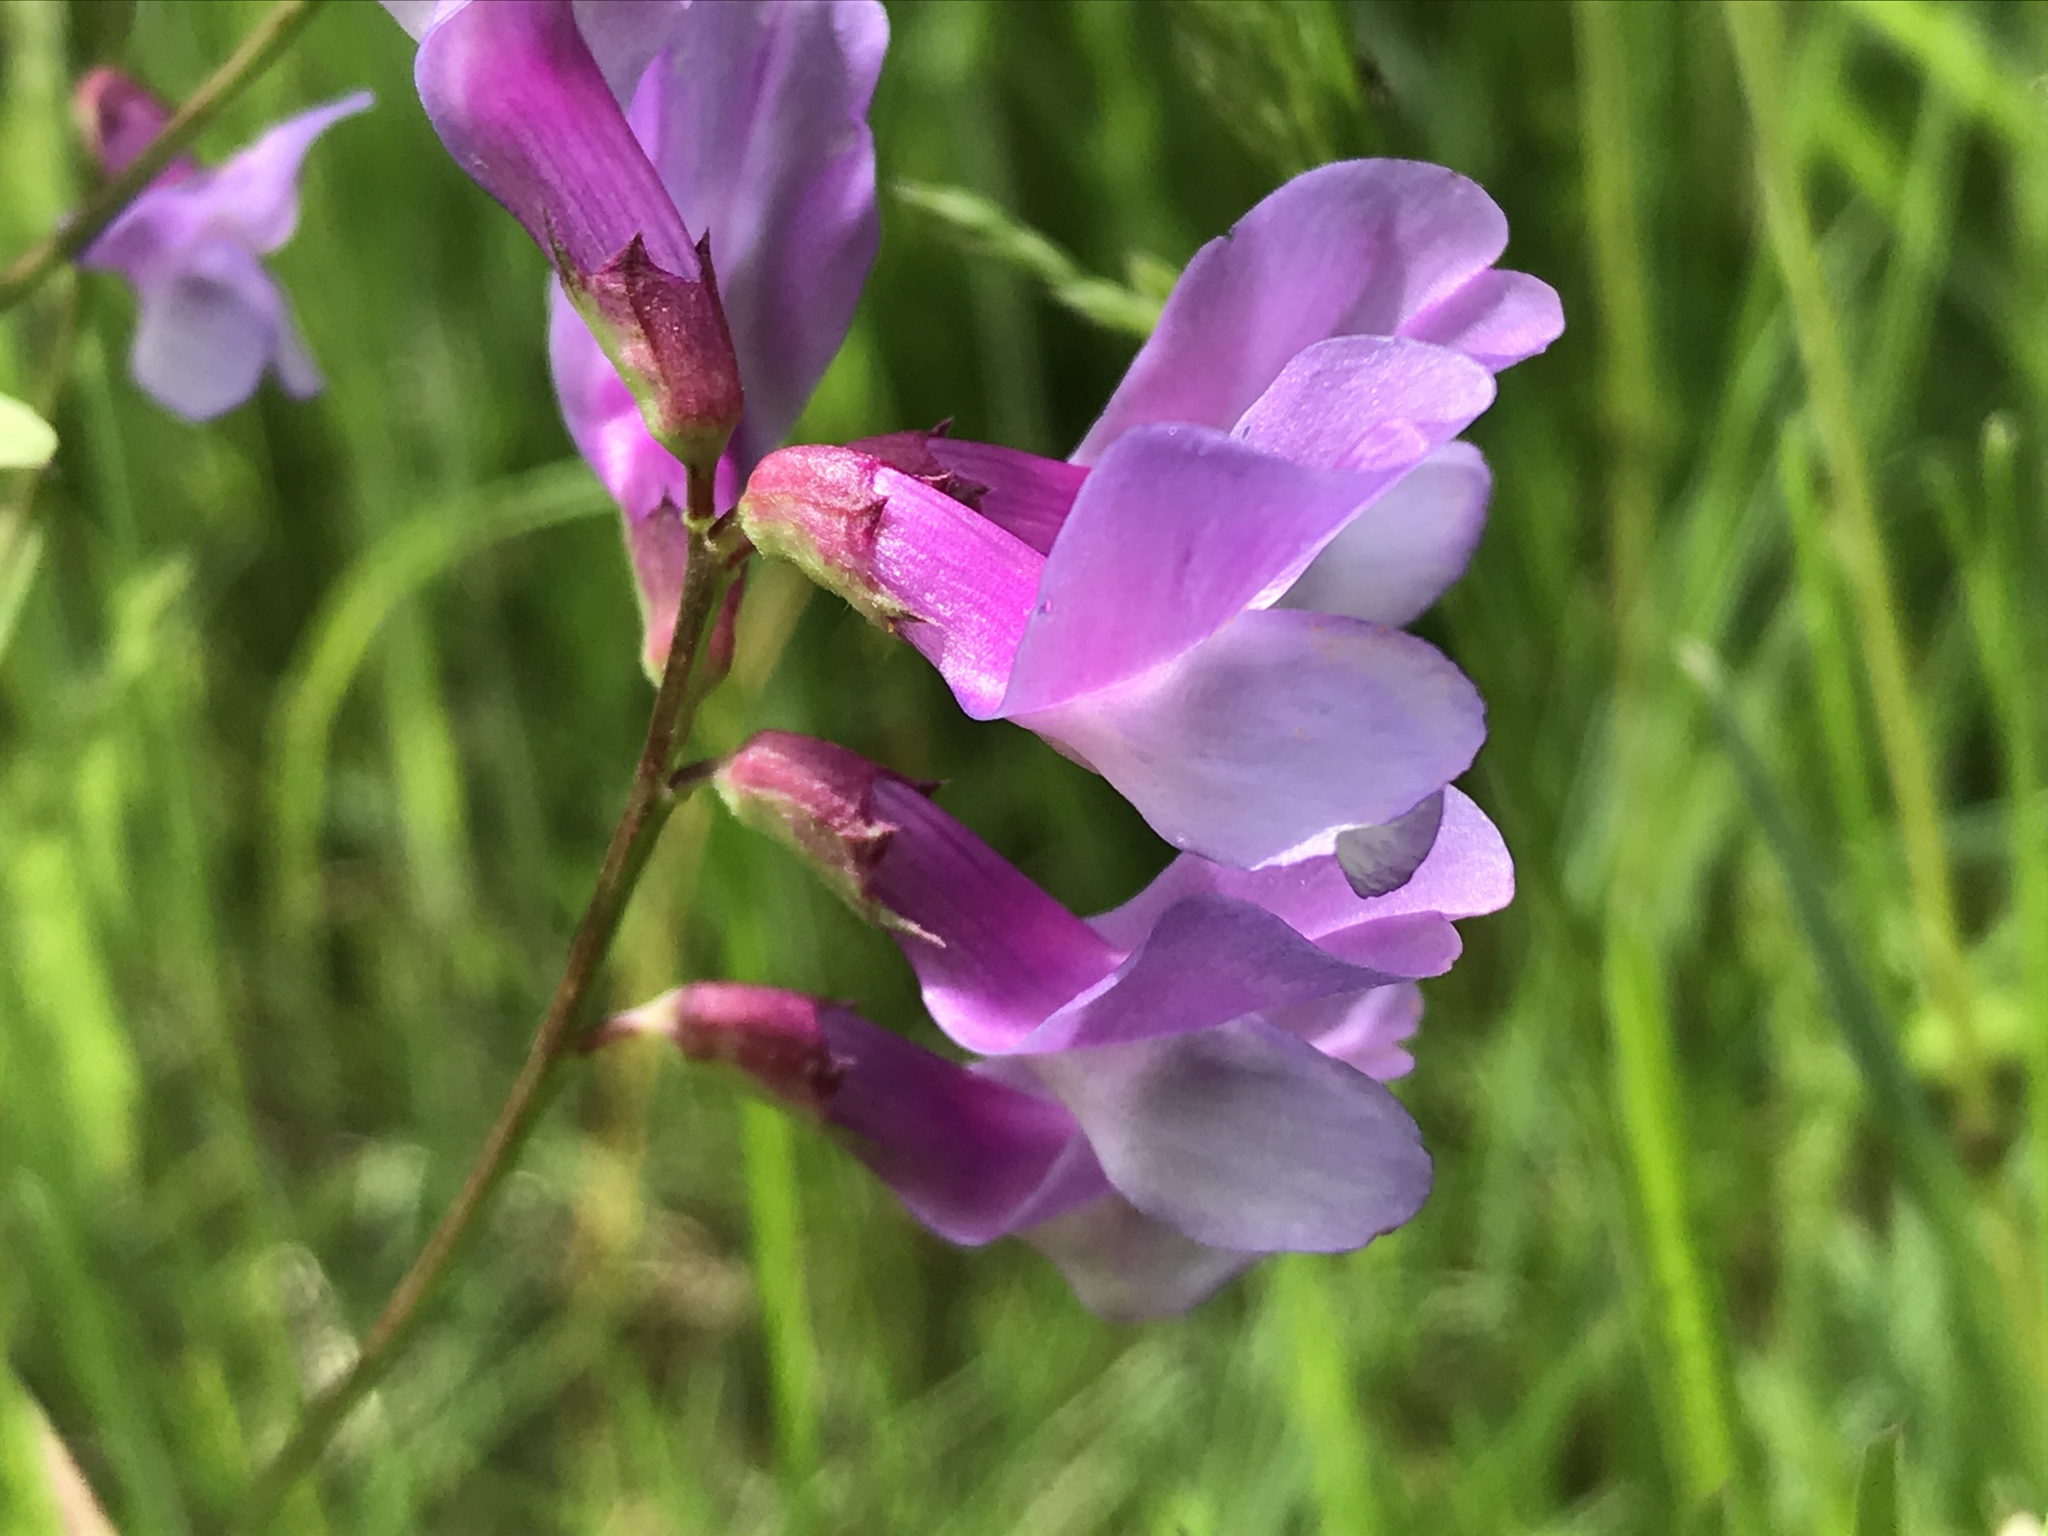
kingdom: Plantae
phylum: Tracheophyta
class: Magnoliopsida
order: Fabales
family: Fabaceae
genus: Vicia
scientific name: Vicia americana
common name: American vetch
